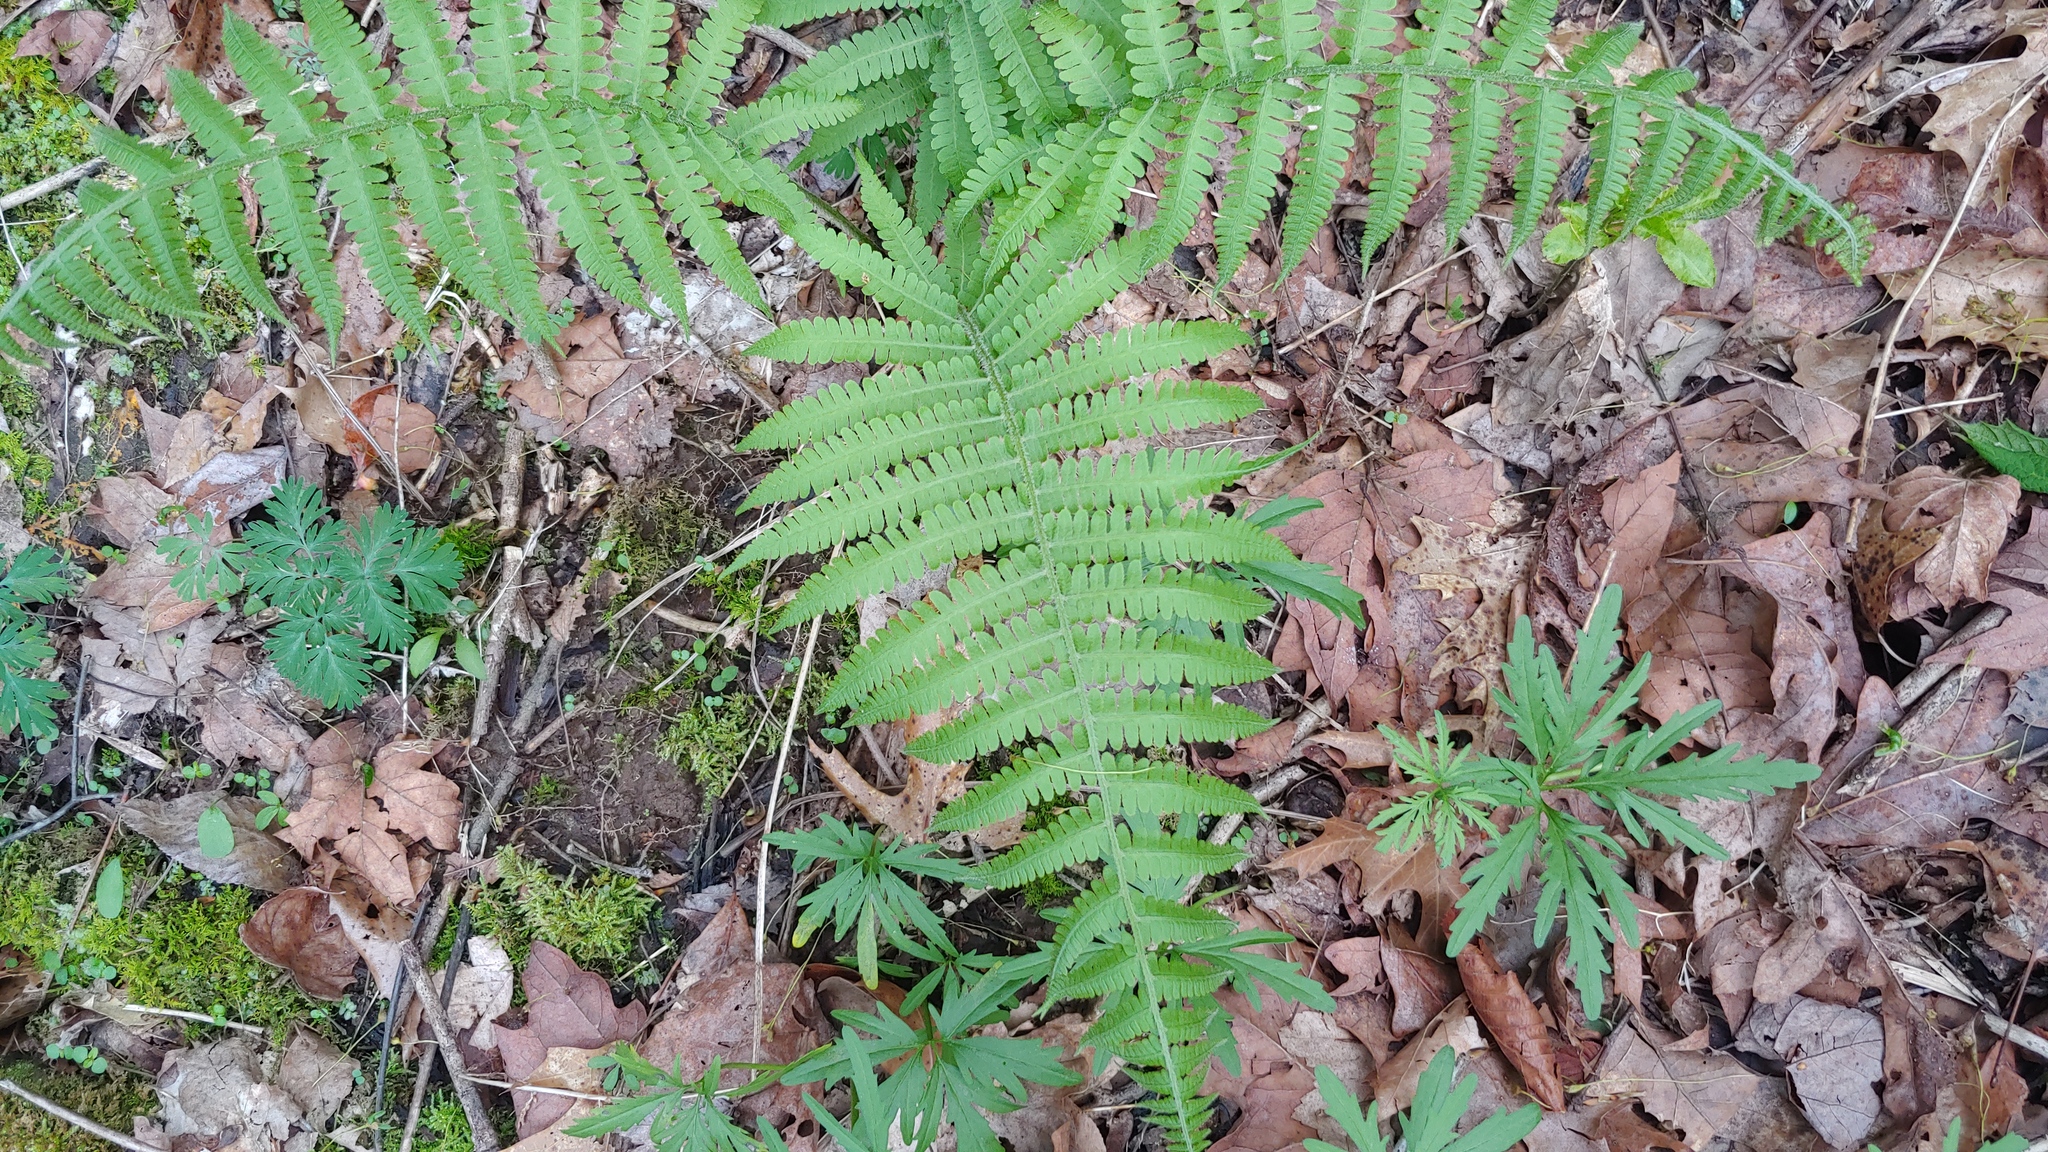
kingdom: Plantae
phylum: Tracheophyta
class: Polypodiopsida
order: Polypodiales
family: Athyriaceae
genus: Deparia
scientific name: Deparia acrostichoides
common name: Silver false spleenwort
